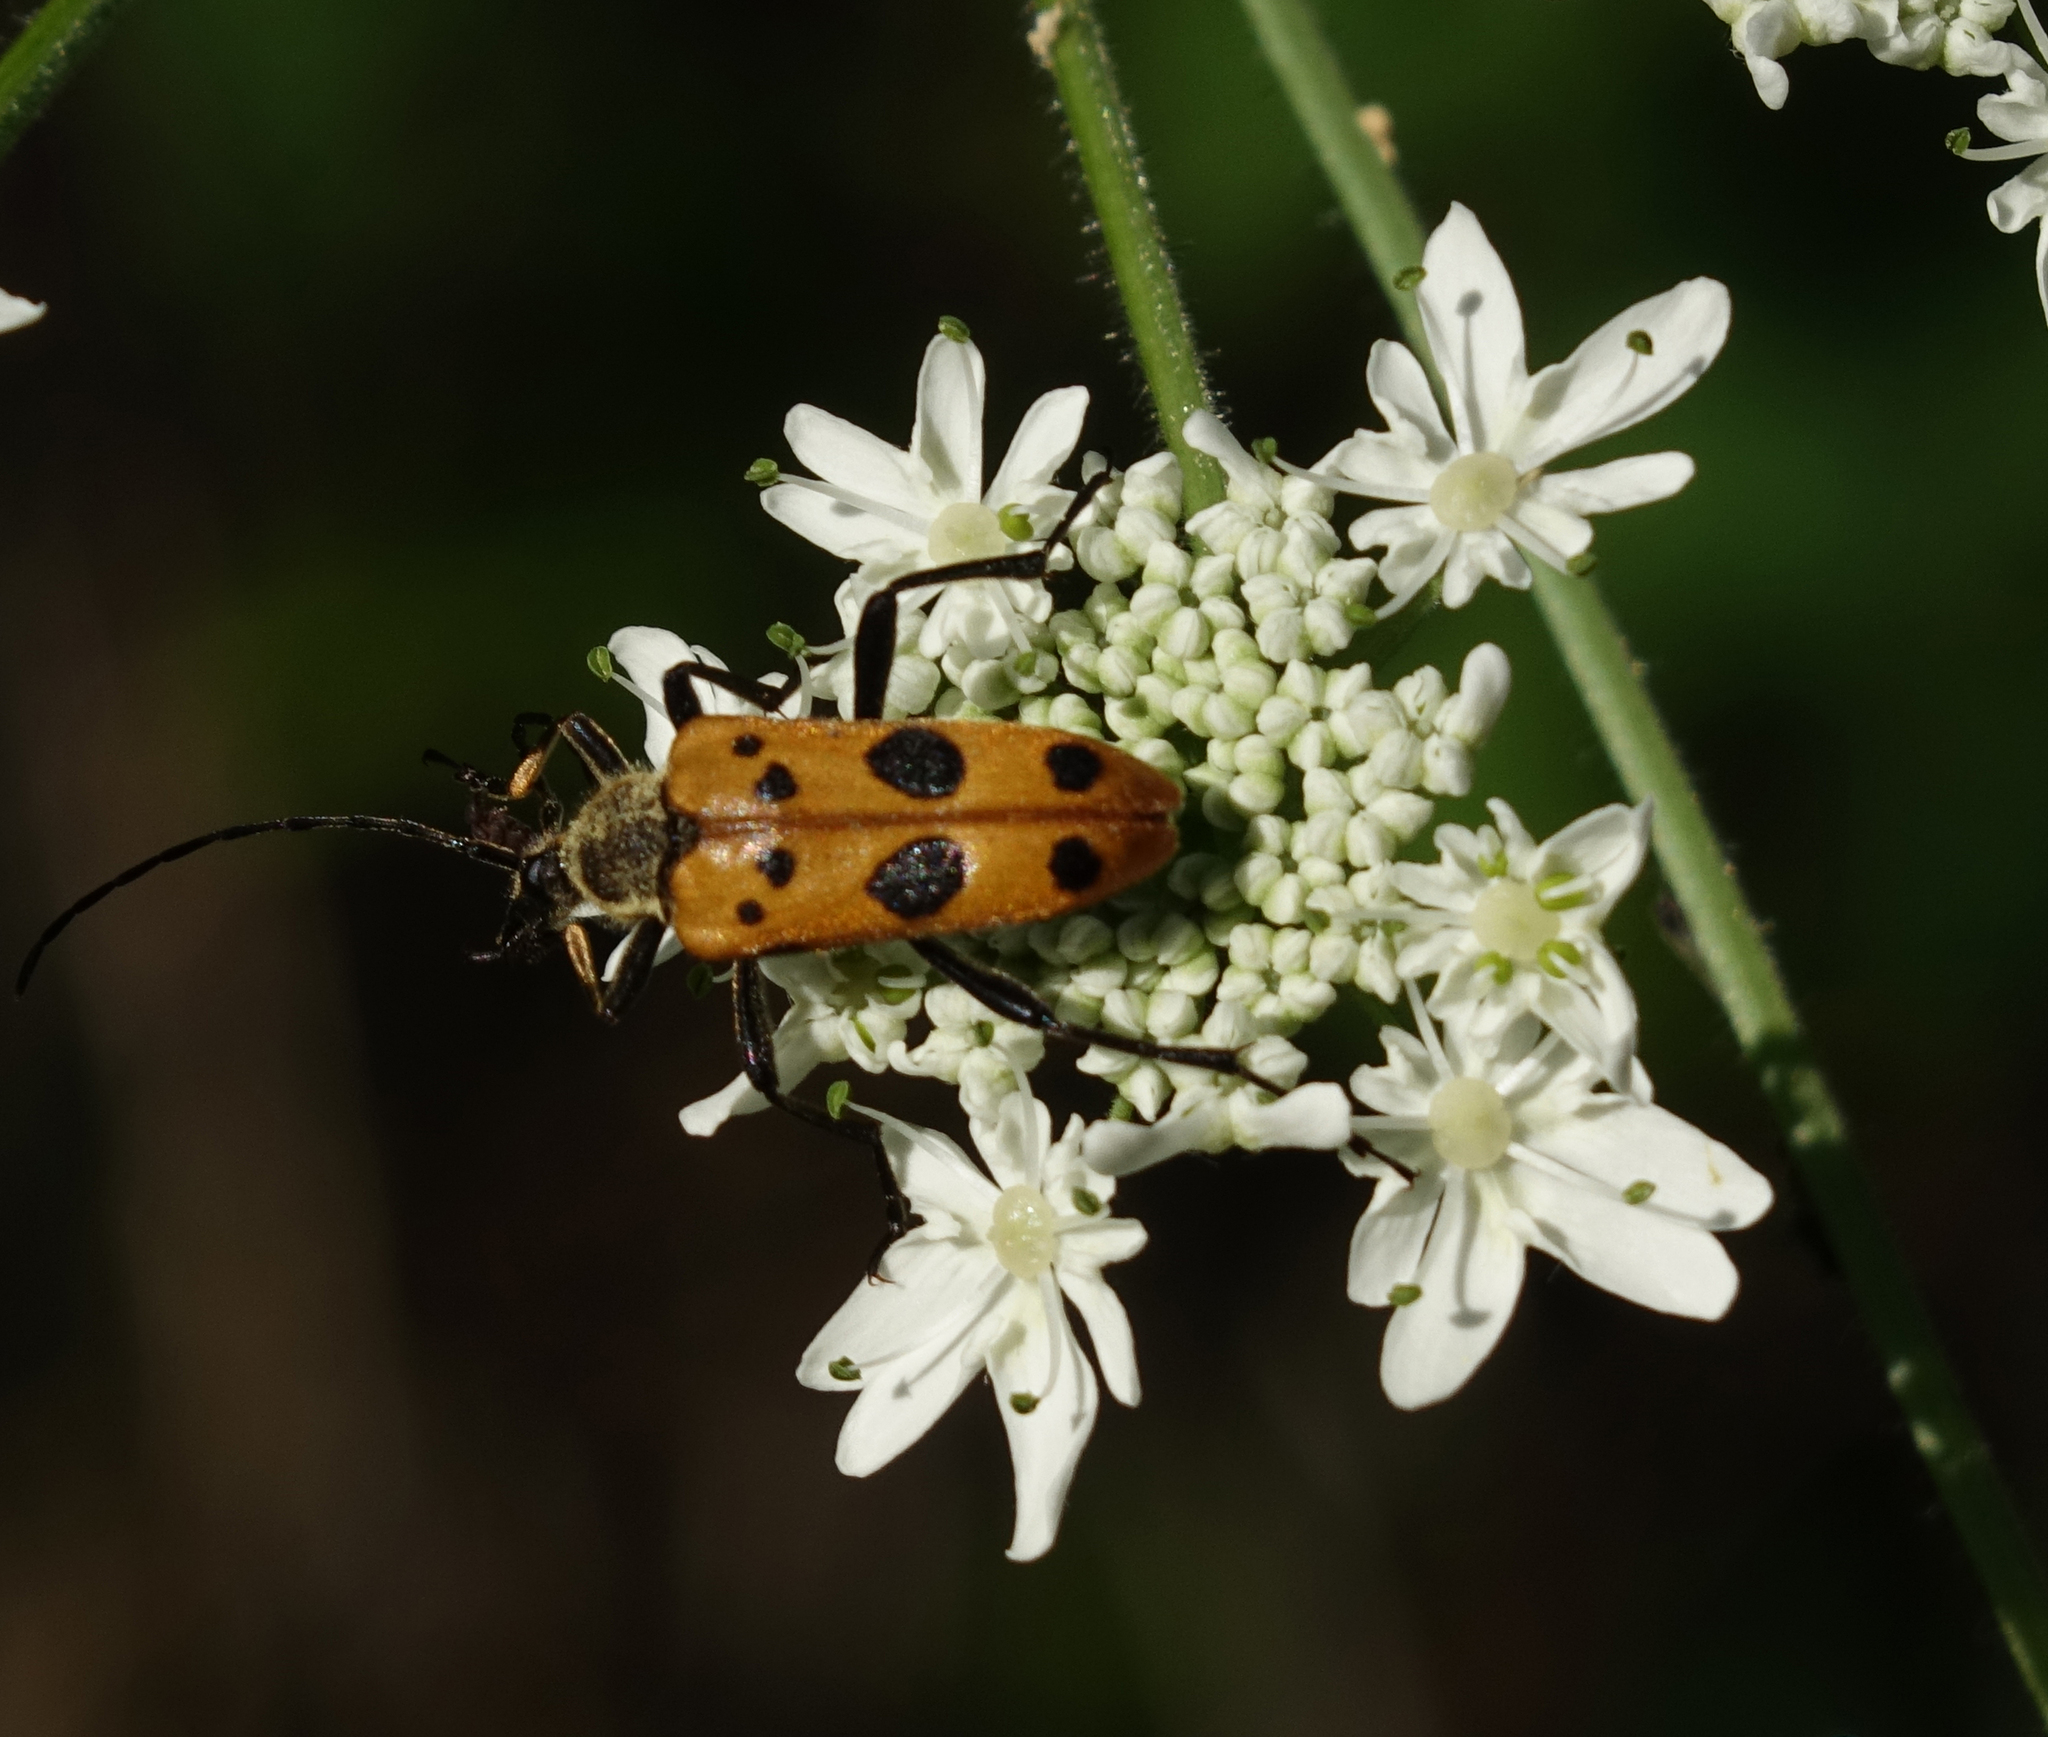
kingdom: Animalia
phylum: Arthropoda
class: Insecta
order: Coleoptera
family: Cerambycidae
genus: Oedecnema
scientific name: Oedecnema gebleri
